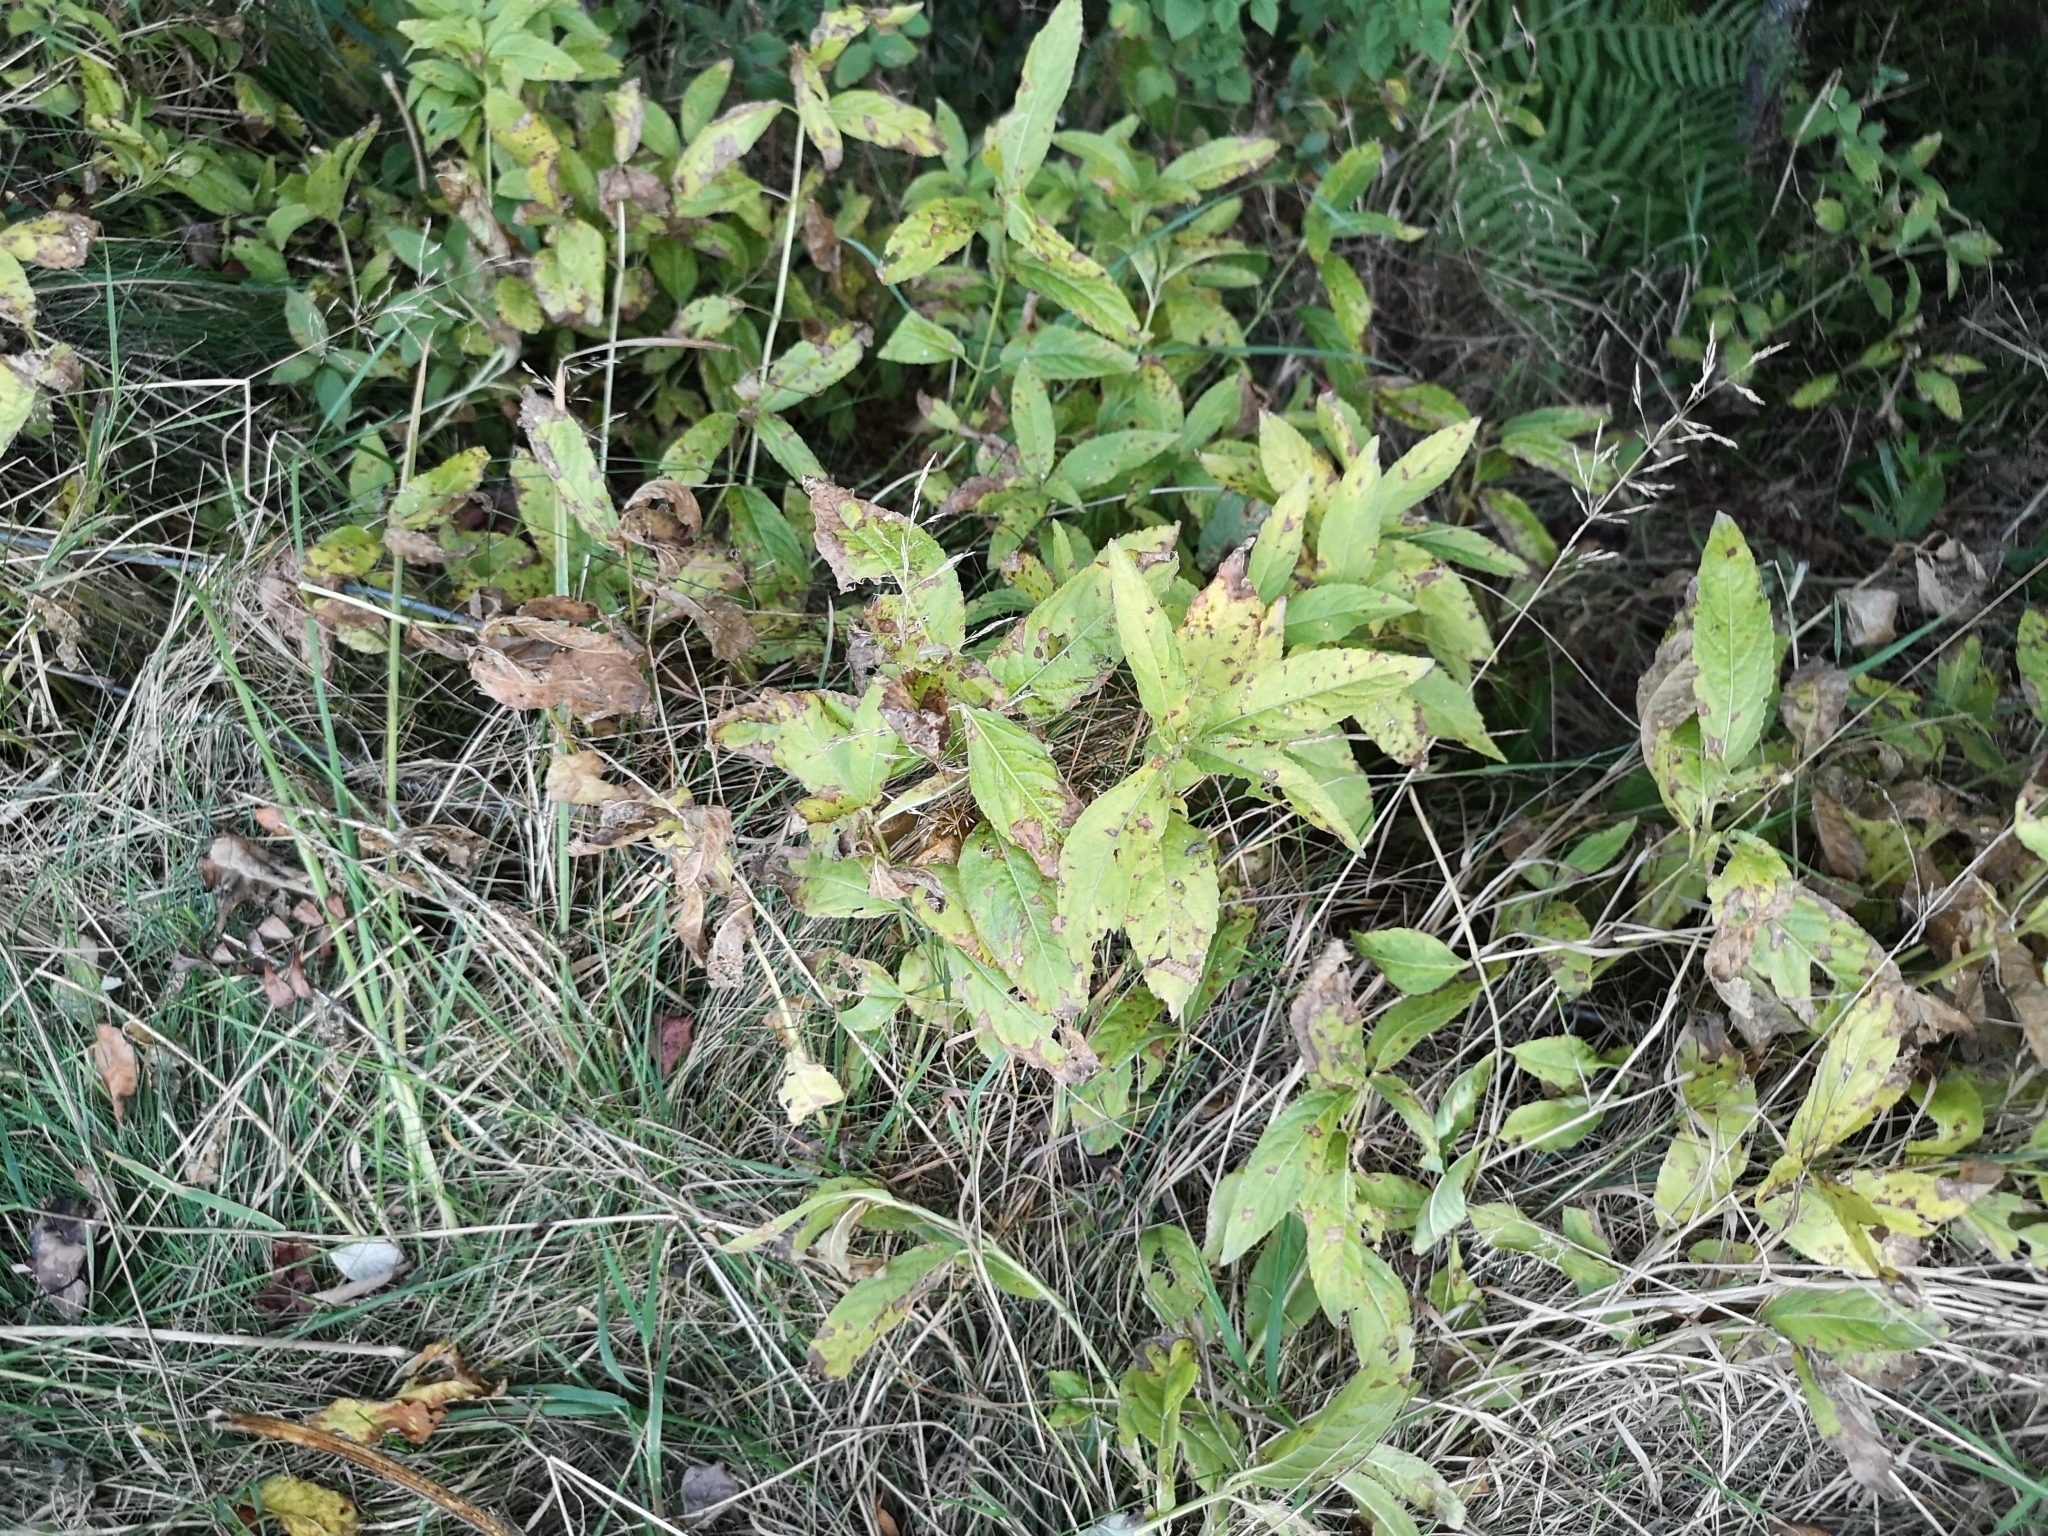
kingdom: Plantae
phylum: Tracheophyta
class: Magnoliopsida
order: Malpighiales
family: Euphorbiaceae
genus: Mercurialis
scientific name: Mercurialis perennis
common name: Dog mercury
